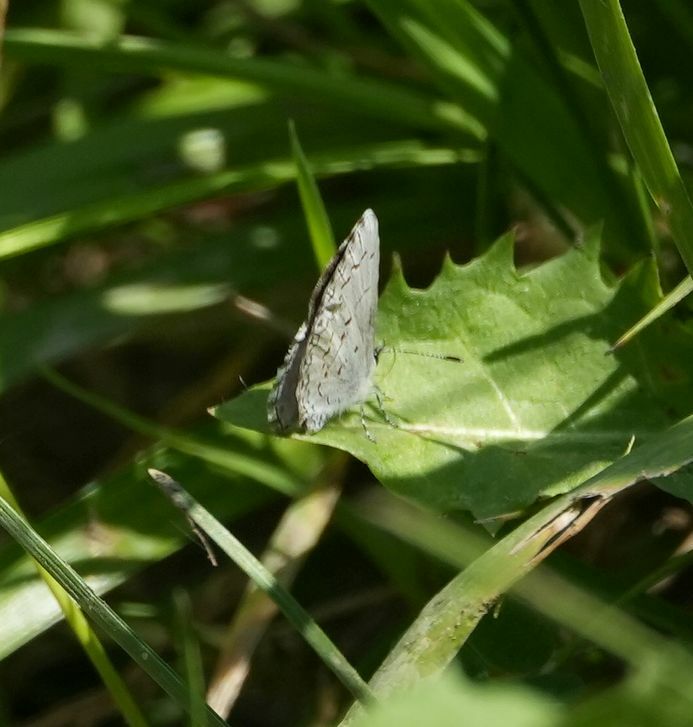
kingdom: Animalia
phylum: Arthropoda
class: Insecta
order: Lepidoptera
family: Lycaenidae
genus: Celastrina
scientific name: Celastrina lucia
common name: Lucia azure
